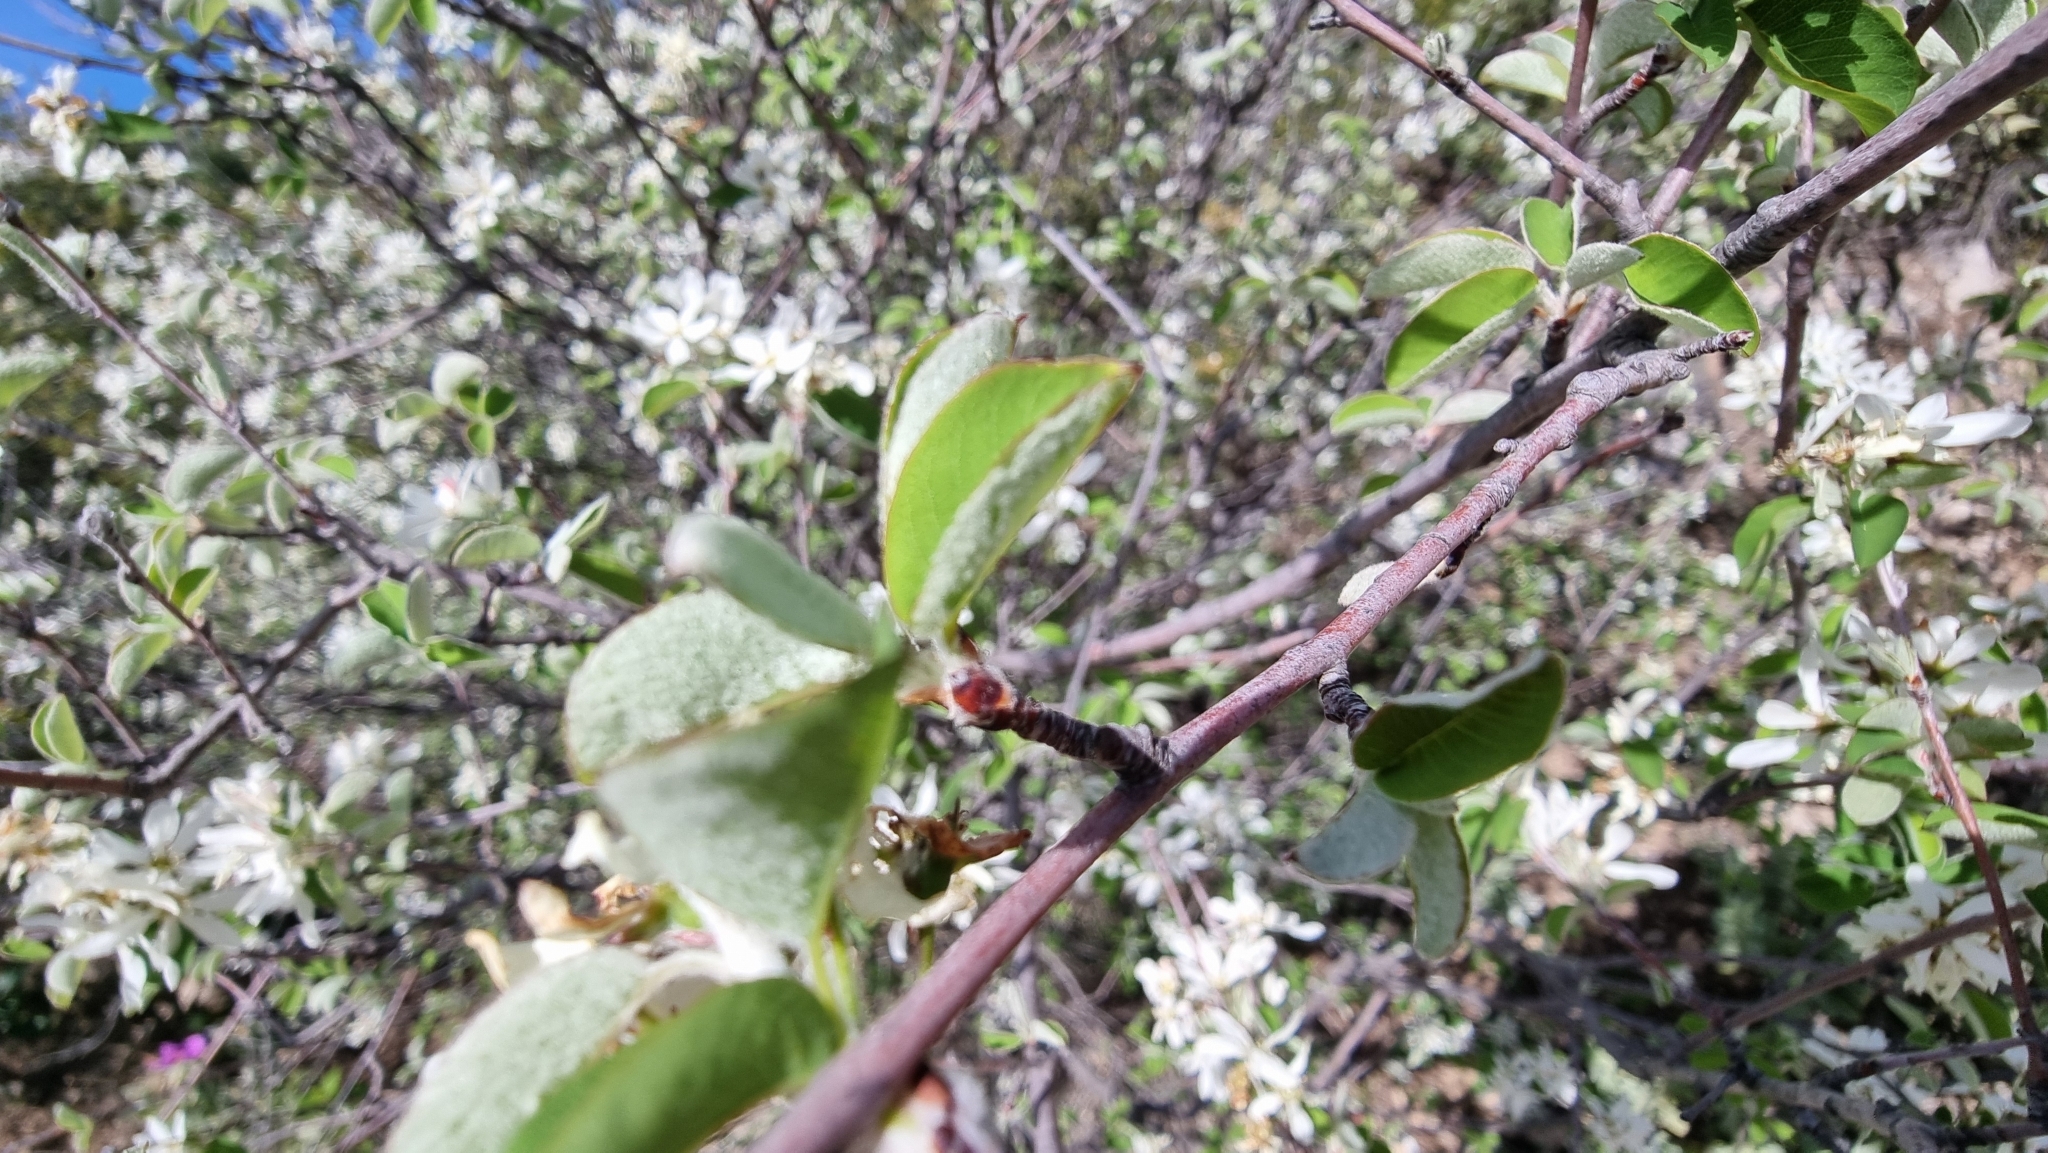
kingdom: Plantae
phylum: Tracheophyta
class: Magnoliopsida
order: Rosales
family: Rosaceae
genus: Amelanchier
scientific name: Amelanchier ovalis
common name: Serviceberry
